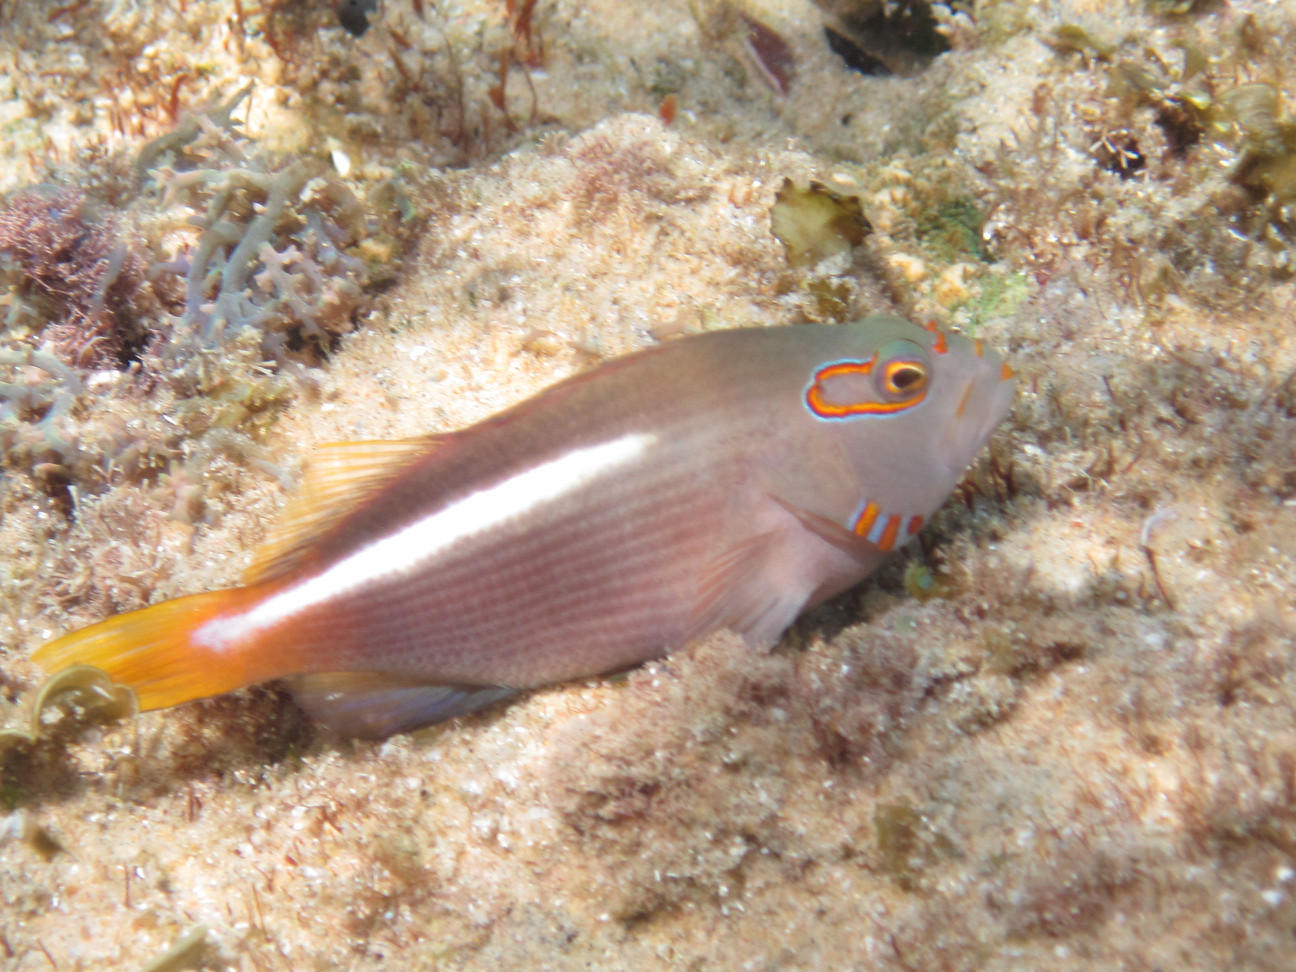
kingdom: Animalia
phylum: Chordata
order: Perciformes
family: Cirrhitidae
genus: Paracirrhites
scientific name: Paracirrhites arcatus
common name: Arc-eye hawkfish
